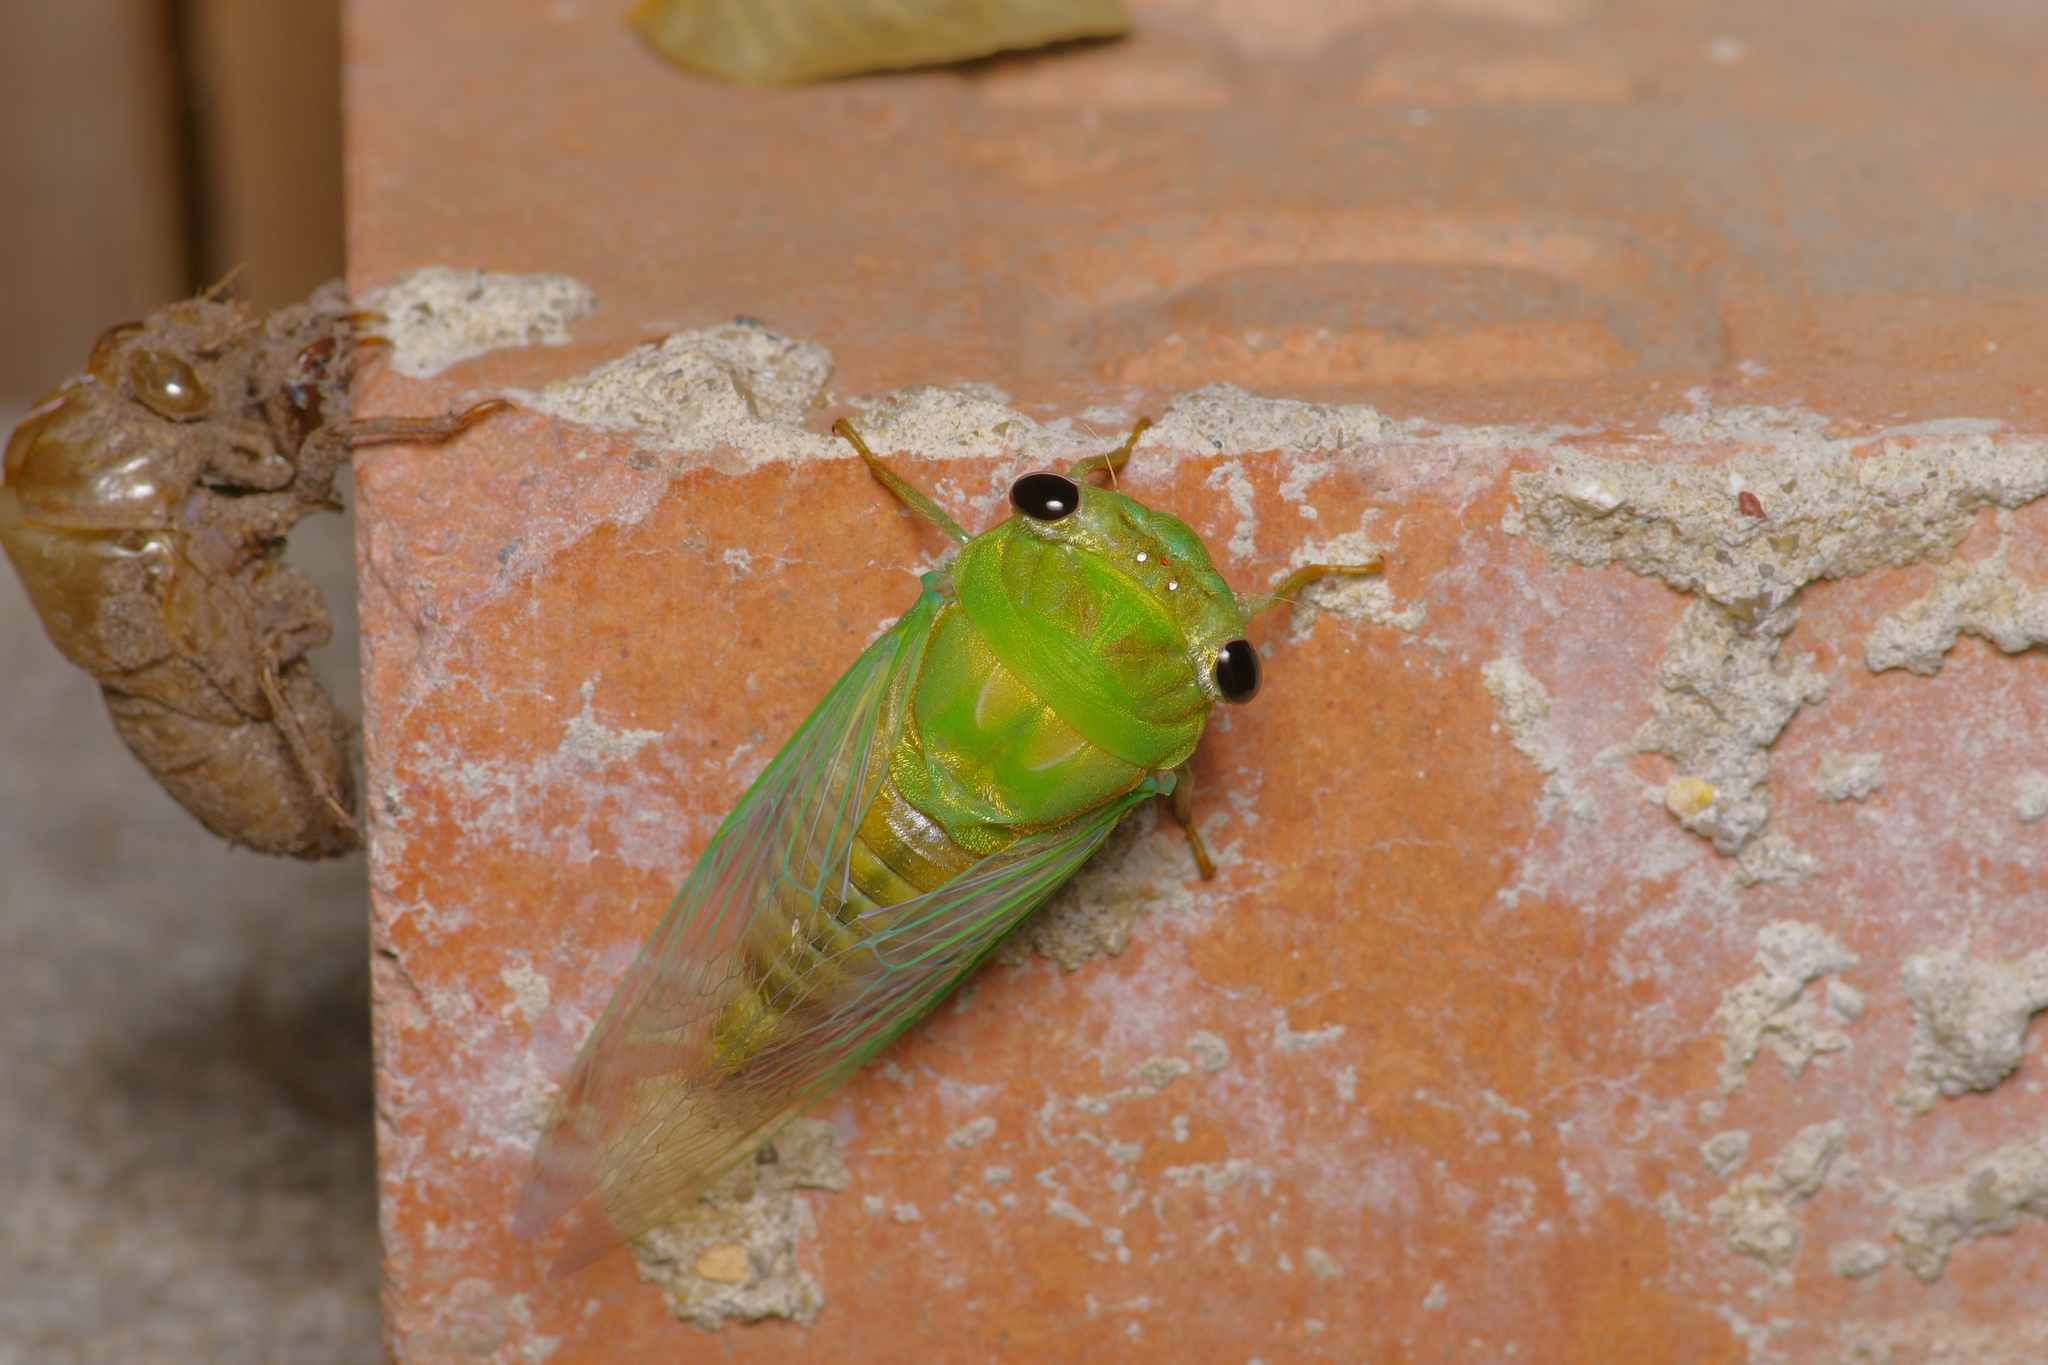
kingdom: Animalia
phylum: Arthropoda
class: Insecta
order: Hemiptera
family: Cicadidae
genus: Neotibicen
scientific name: Neotibicen superbus
